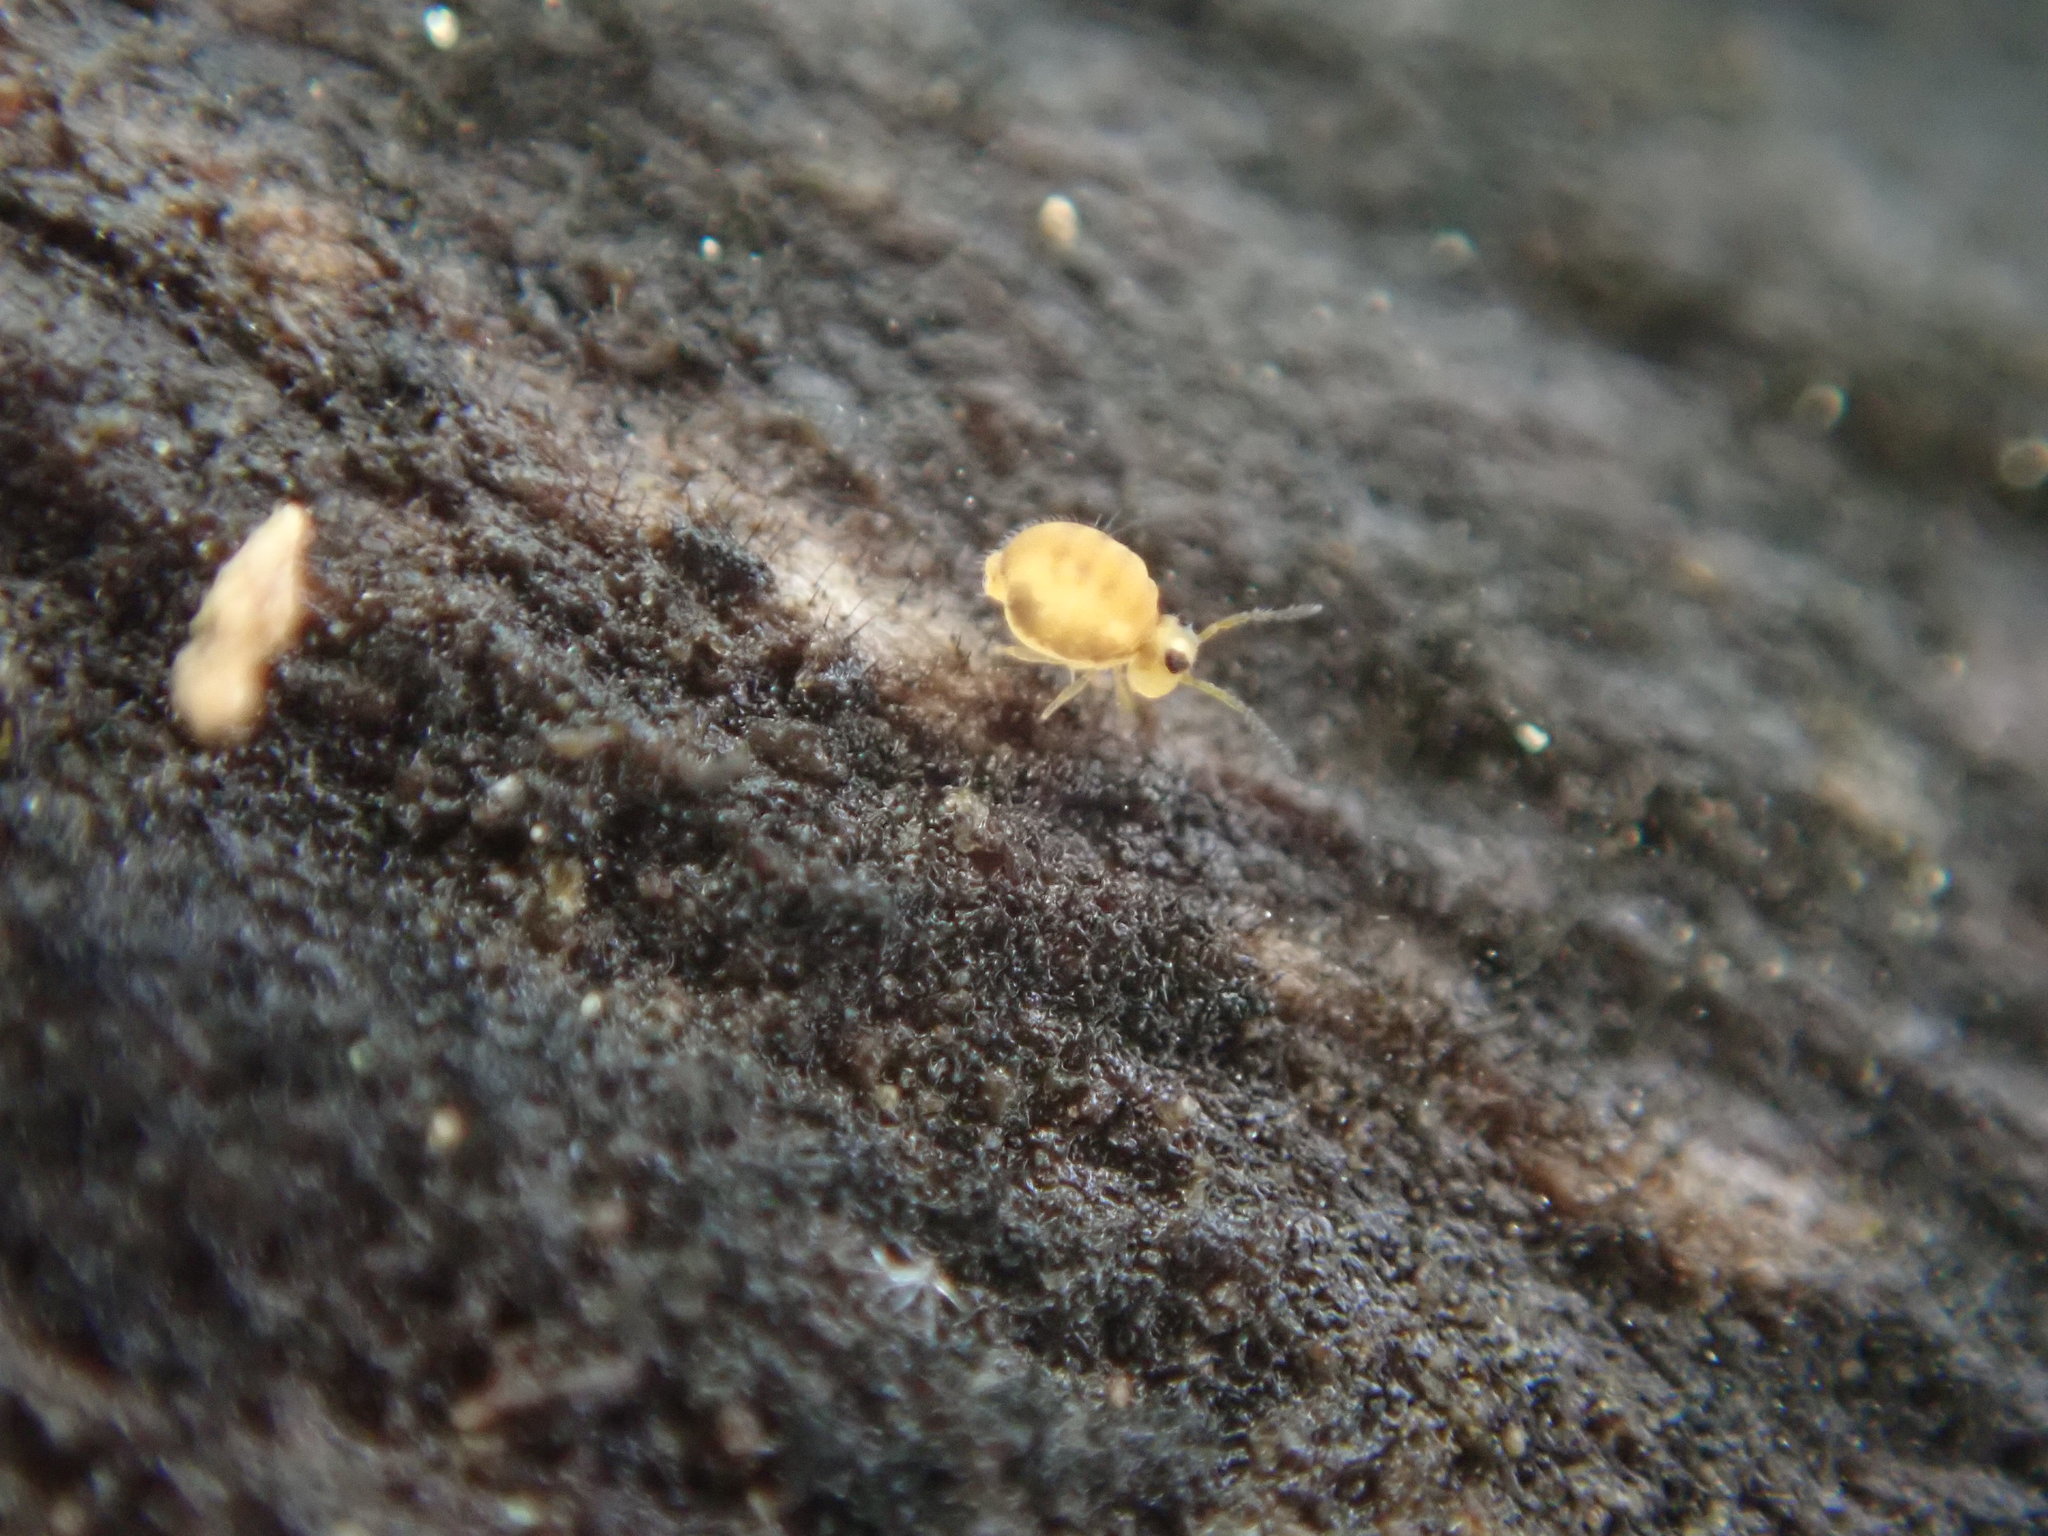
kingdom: Animalia
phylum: Arthropoda
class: Collembola
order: Symphypleona
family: Katiannidae
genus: Sminthurinus
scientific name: Sminthurinus henshawi
